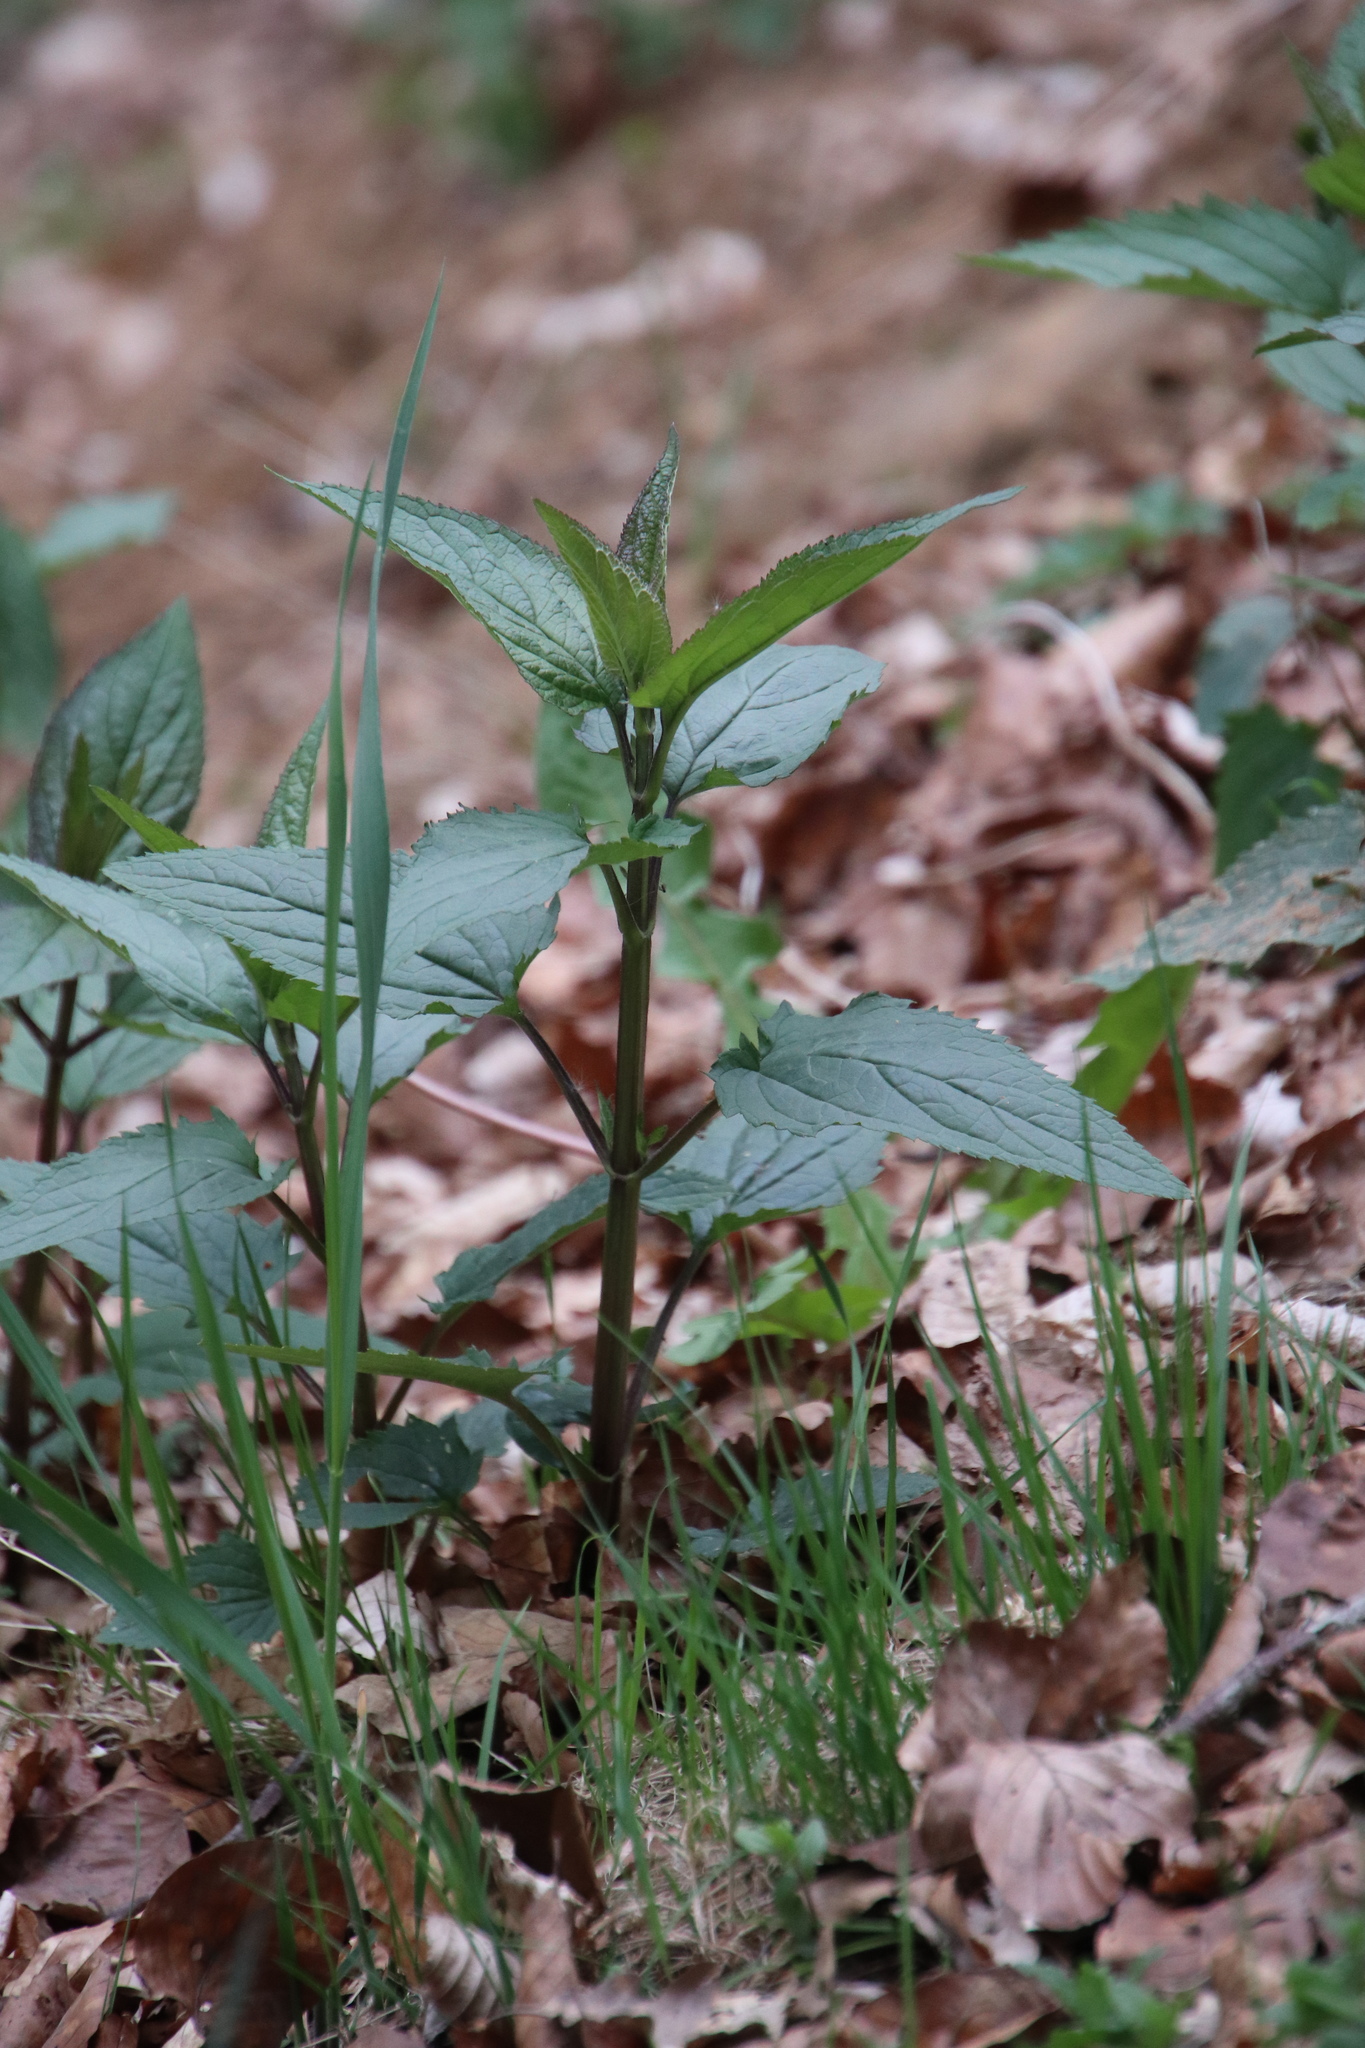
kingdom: Plantae
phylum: Tracheophyta
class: Magnoliopsida
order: Lamiales
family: Scrophulariaceae
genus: Scrophularia
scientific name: Scrophularia nodosa
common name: Common figwort
